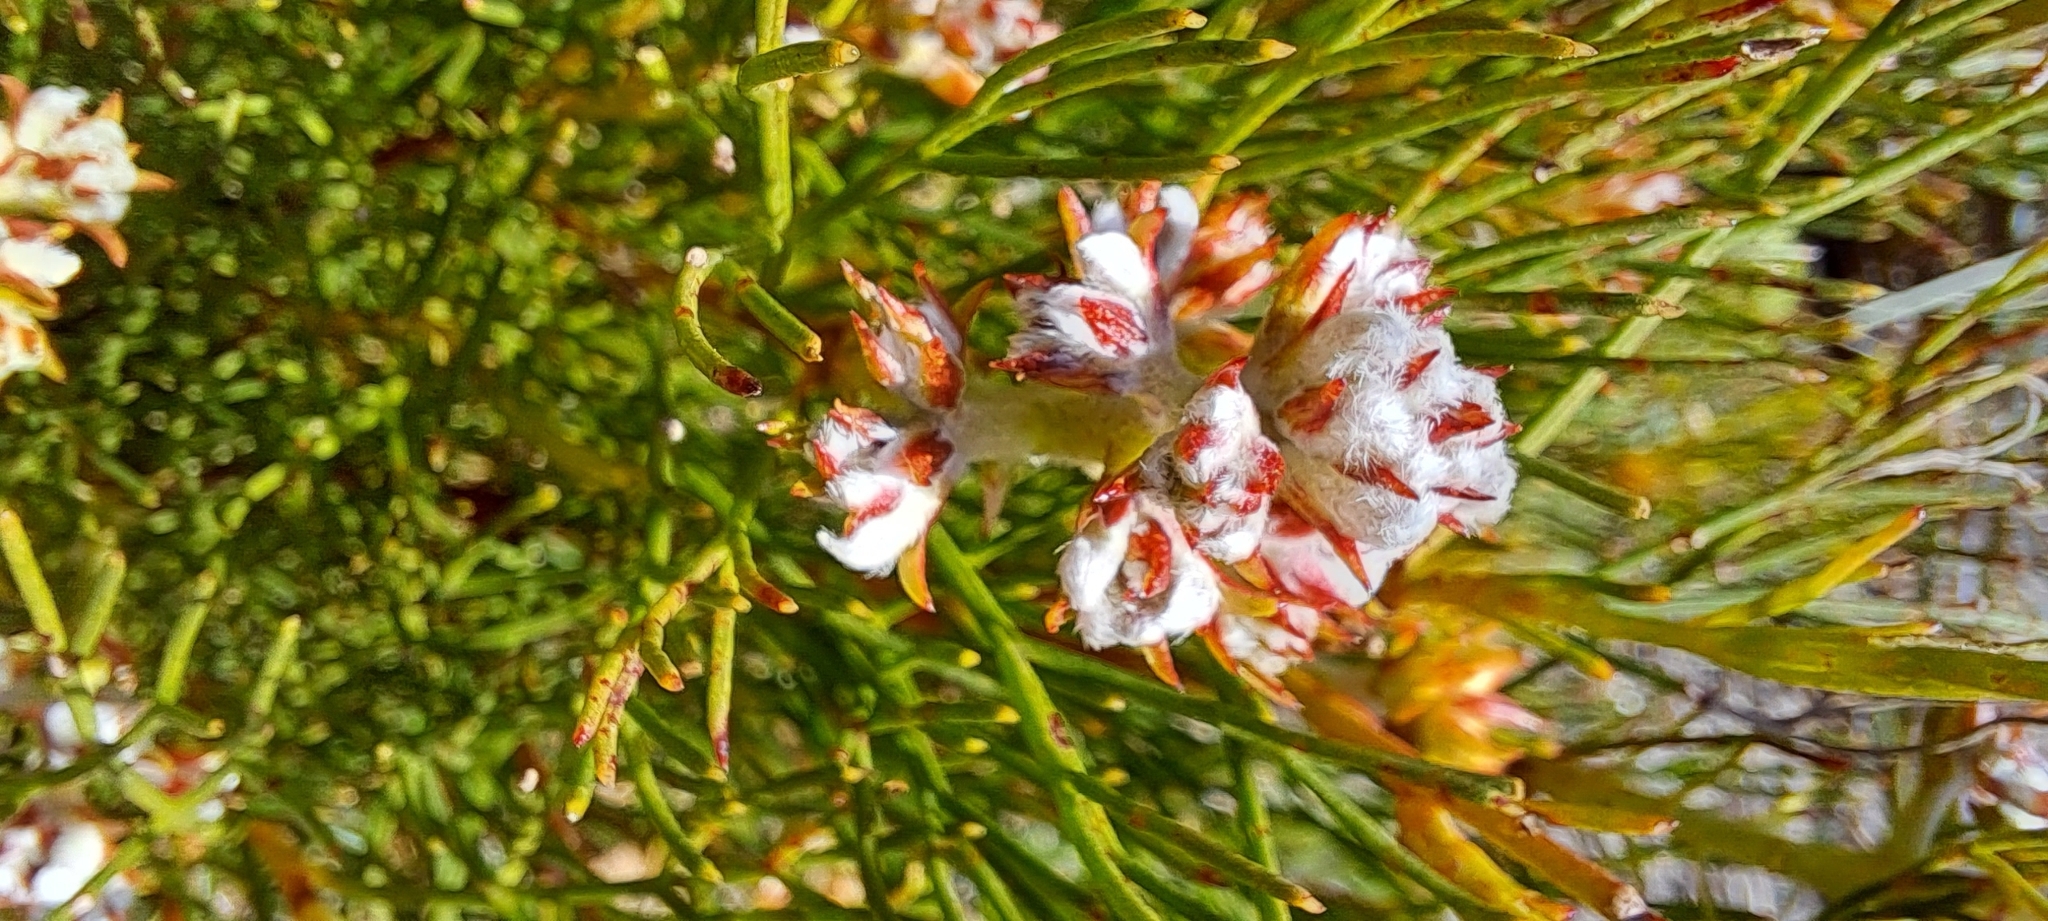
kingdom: Plantae
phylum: Tracheophyta
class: Magnoliopsida
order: Proteales
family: Proteaceae
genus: Serruria
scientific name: Serruria ascendens
